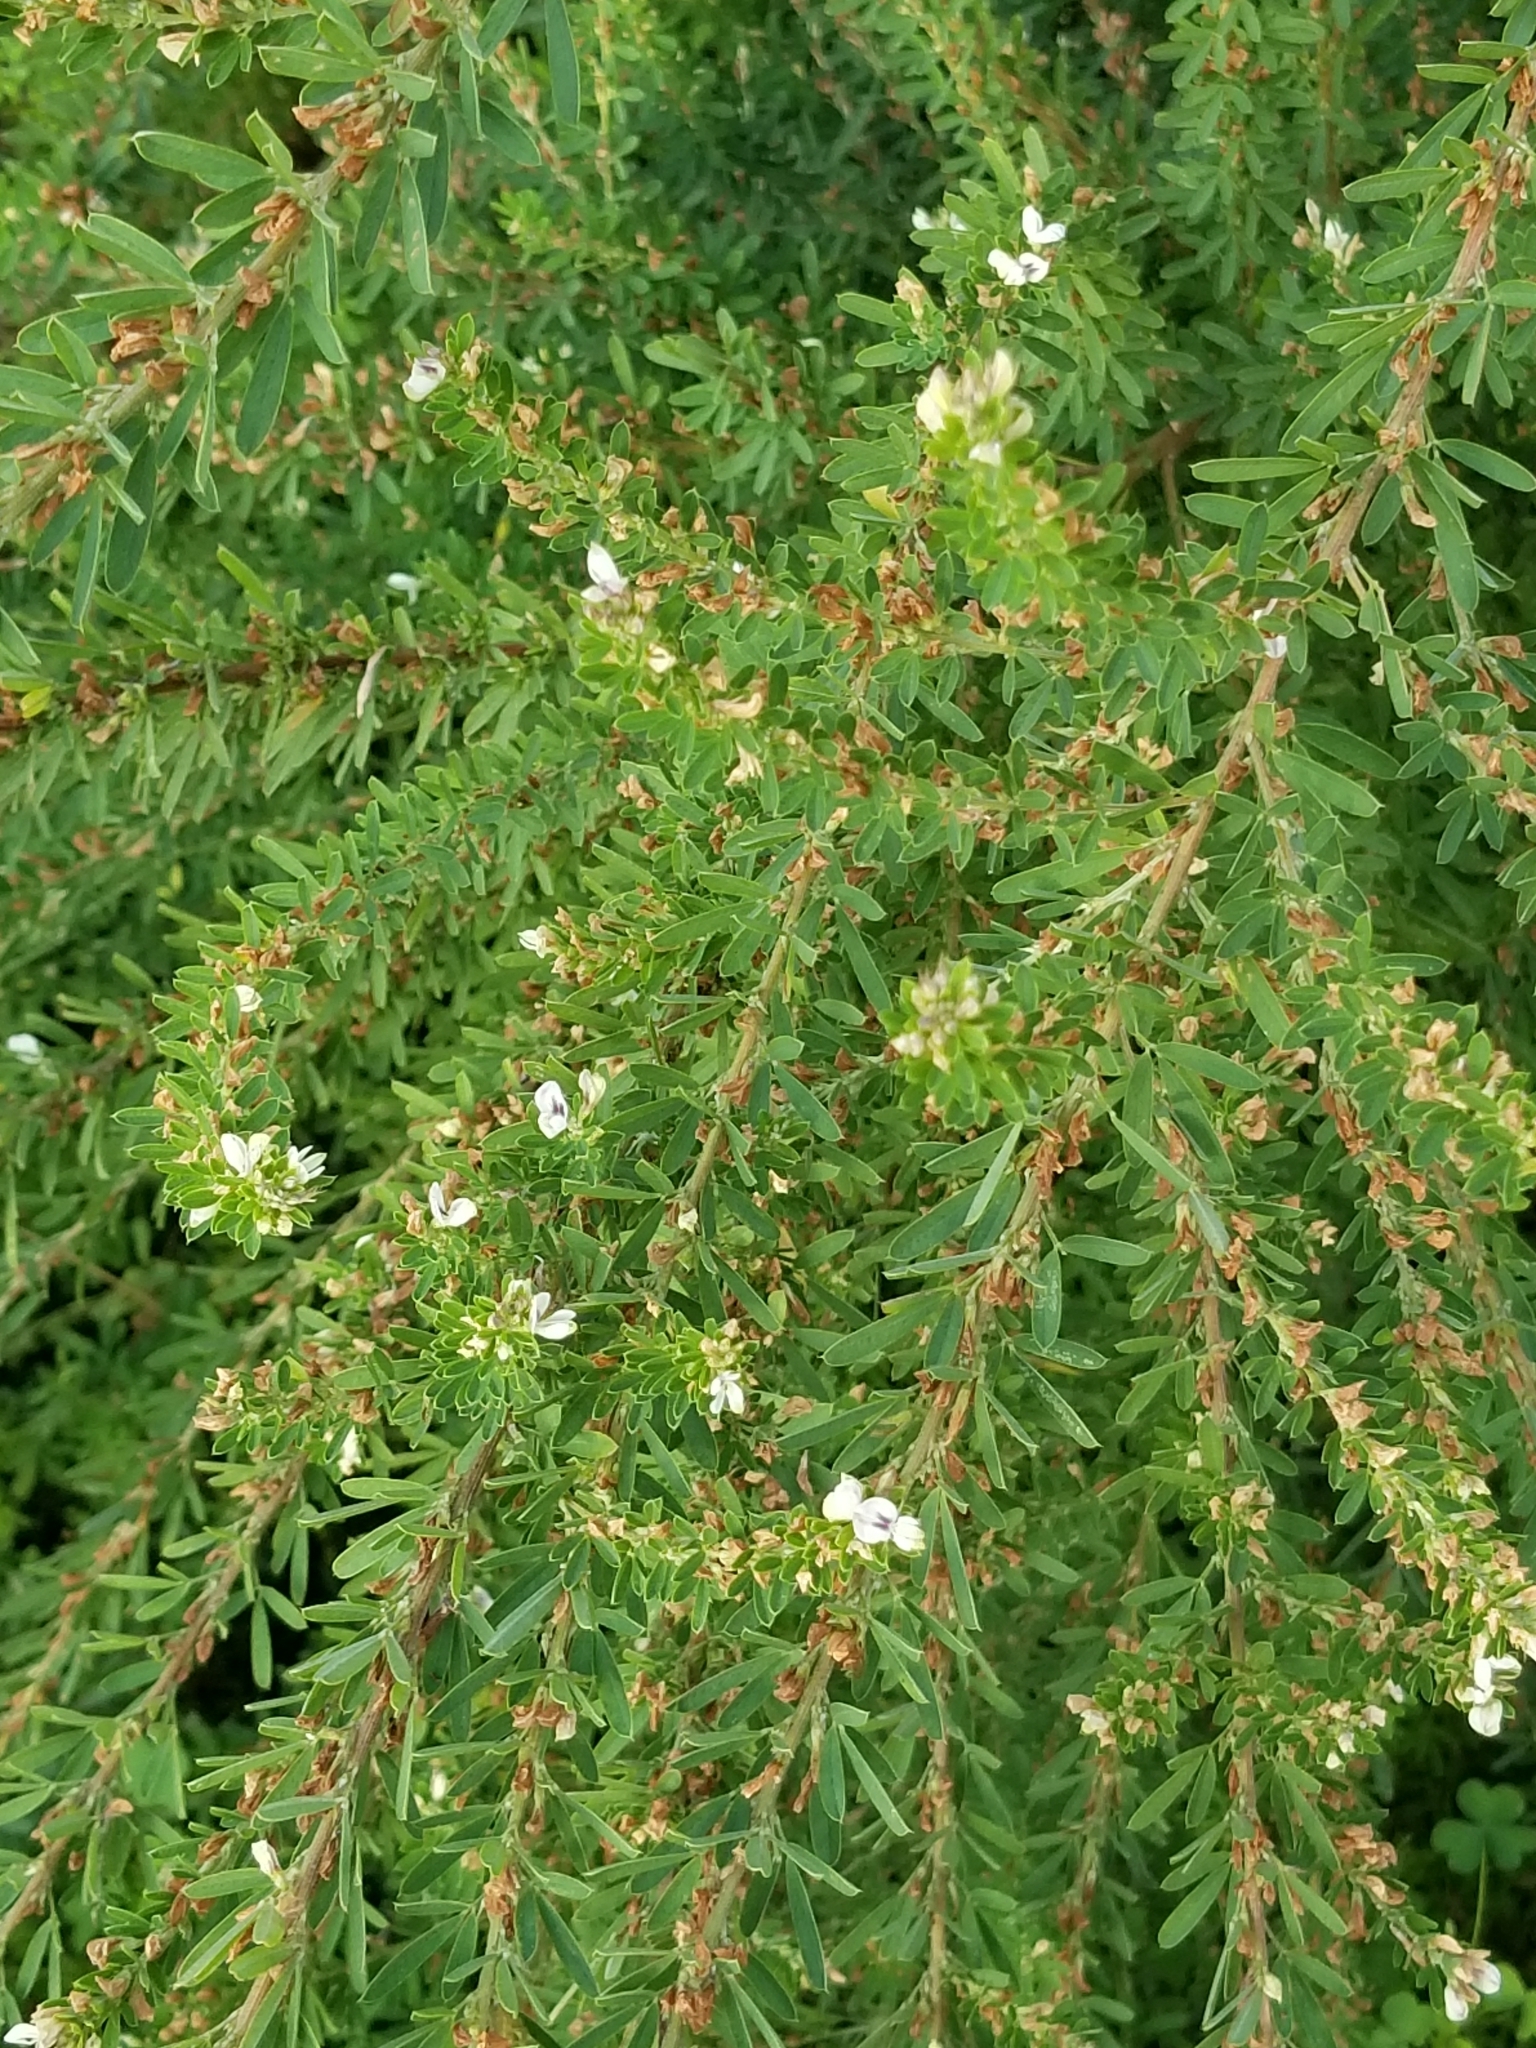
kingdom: Plantae
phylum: Tracheophyta
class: Magnoliopsida
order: Fabales
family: Fabaceae
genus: Lespedeza
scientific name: Lespedeza cuneata
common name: Chinese bush-clover
